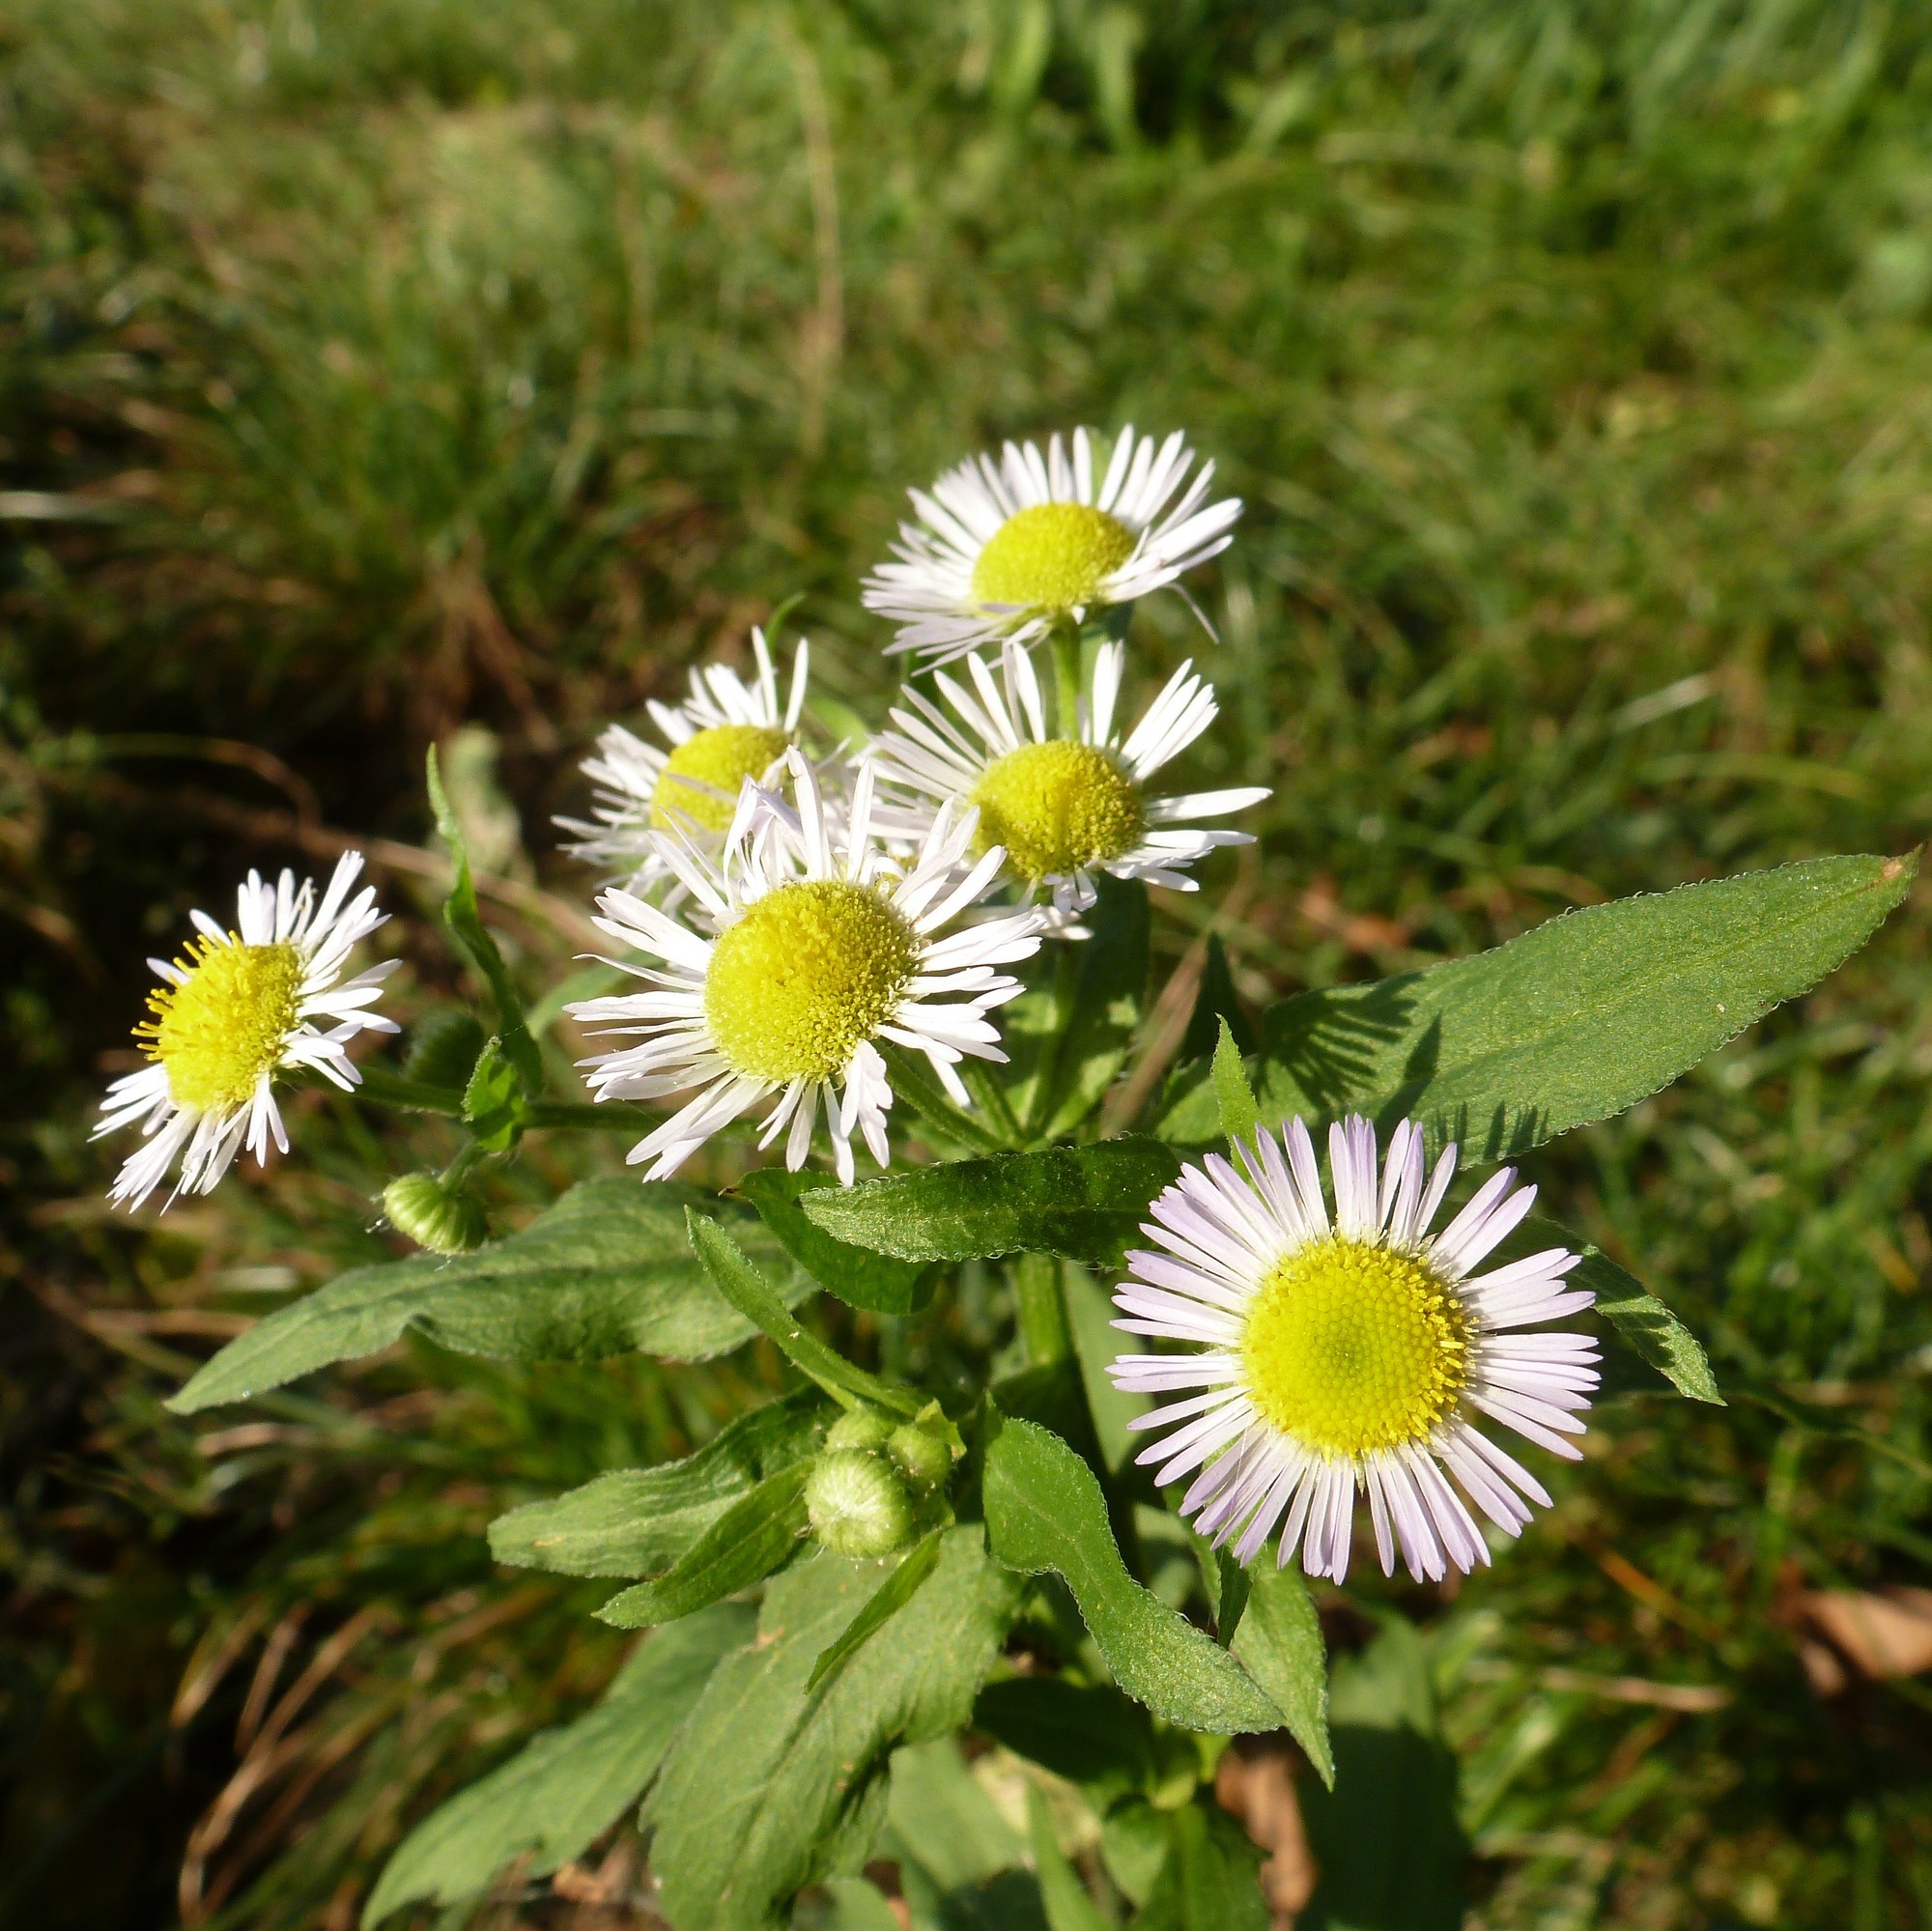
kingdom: Plantae
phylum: Tracheophyta
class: Magnoliopsida
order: Asterales
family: Asteraceae
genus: Erigeron
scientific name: Erigeron annuus
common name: Tall fleabane
